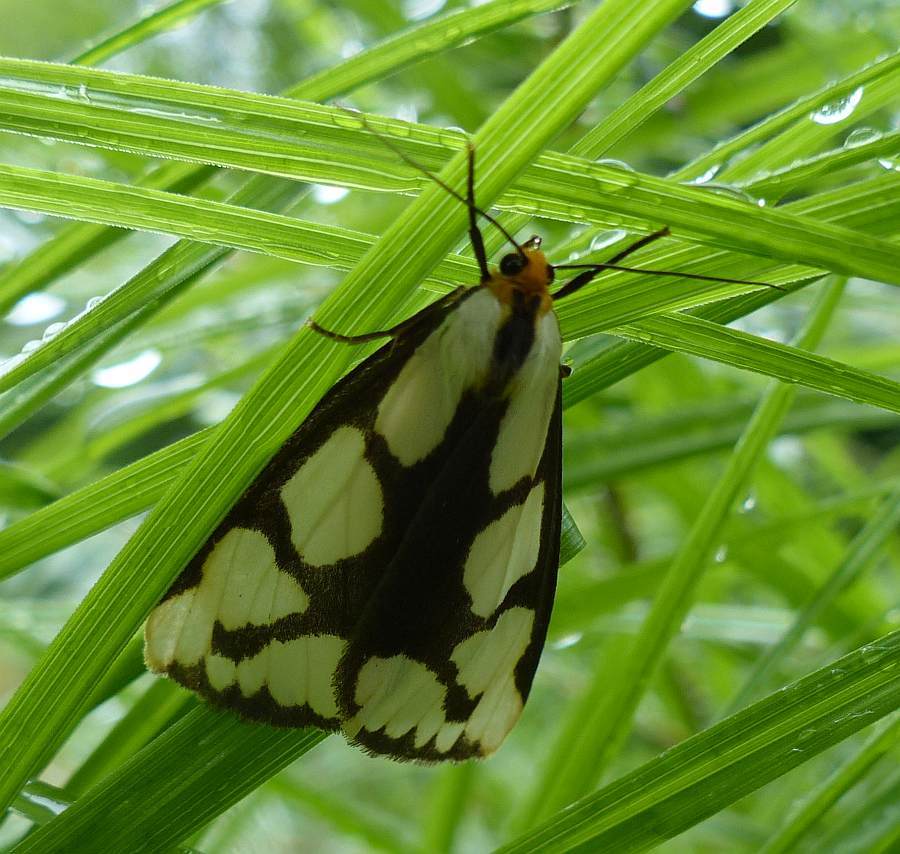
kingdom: Animalia
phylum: Arthropoda
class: Insecta
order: Lepidoptera
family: Erebidae
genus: Haploa
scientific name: Haploa lecontei
